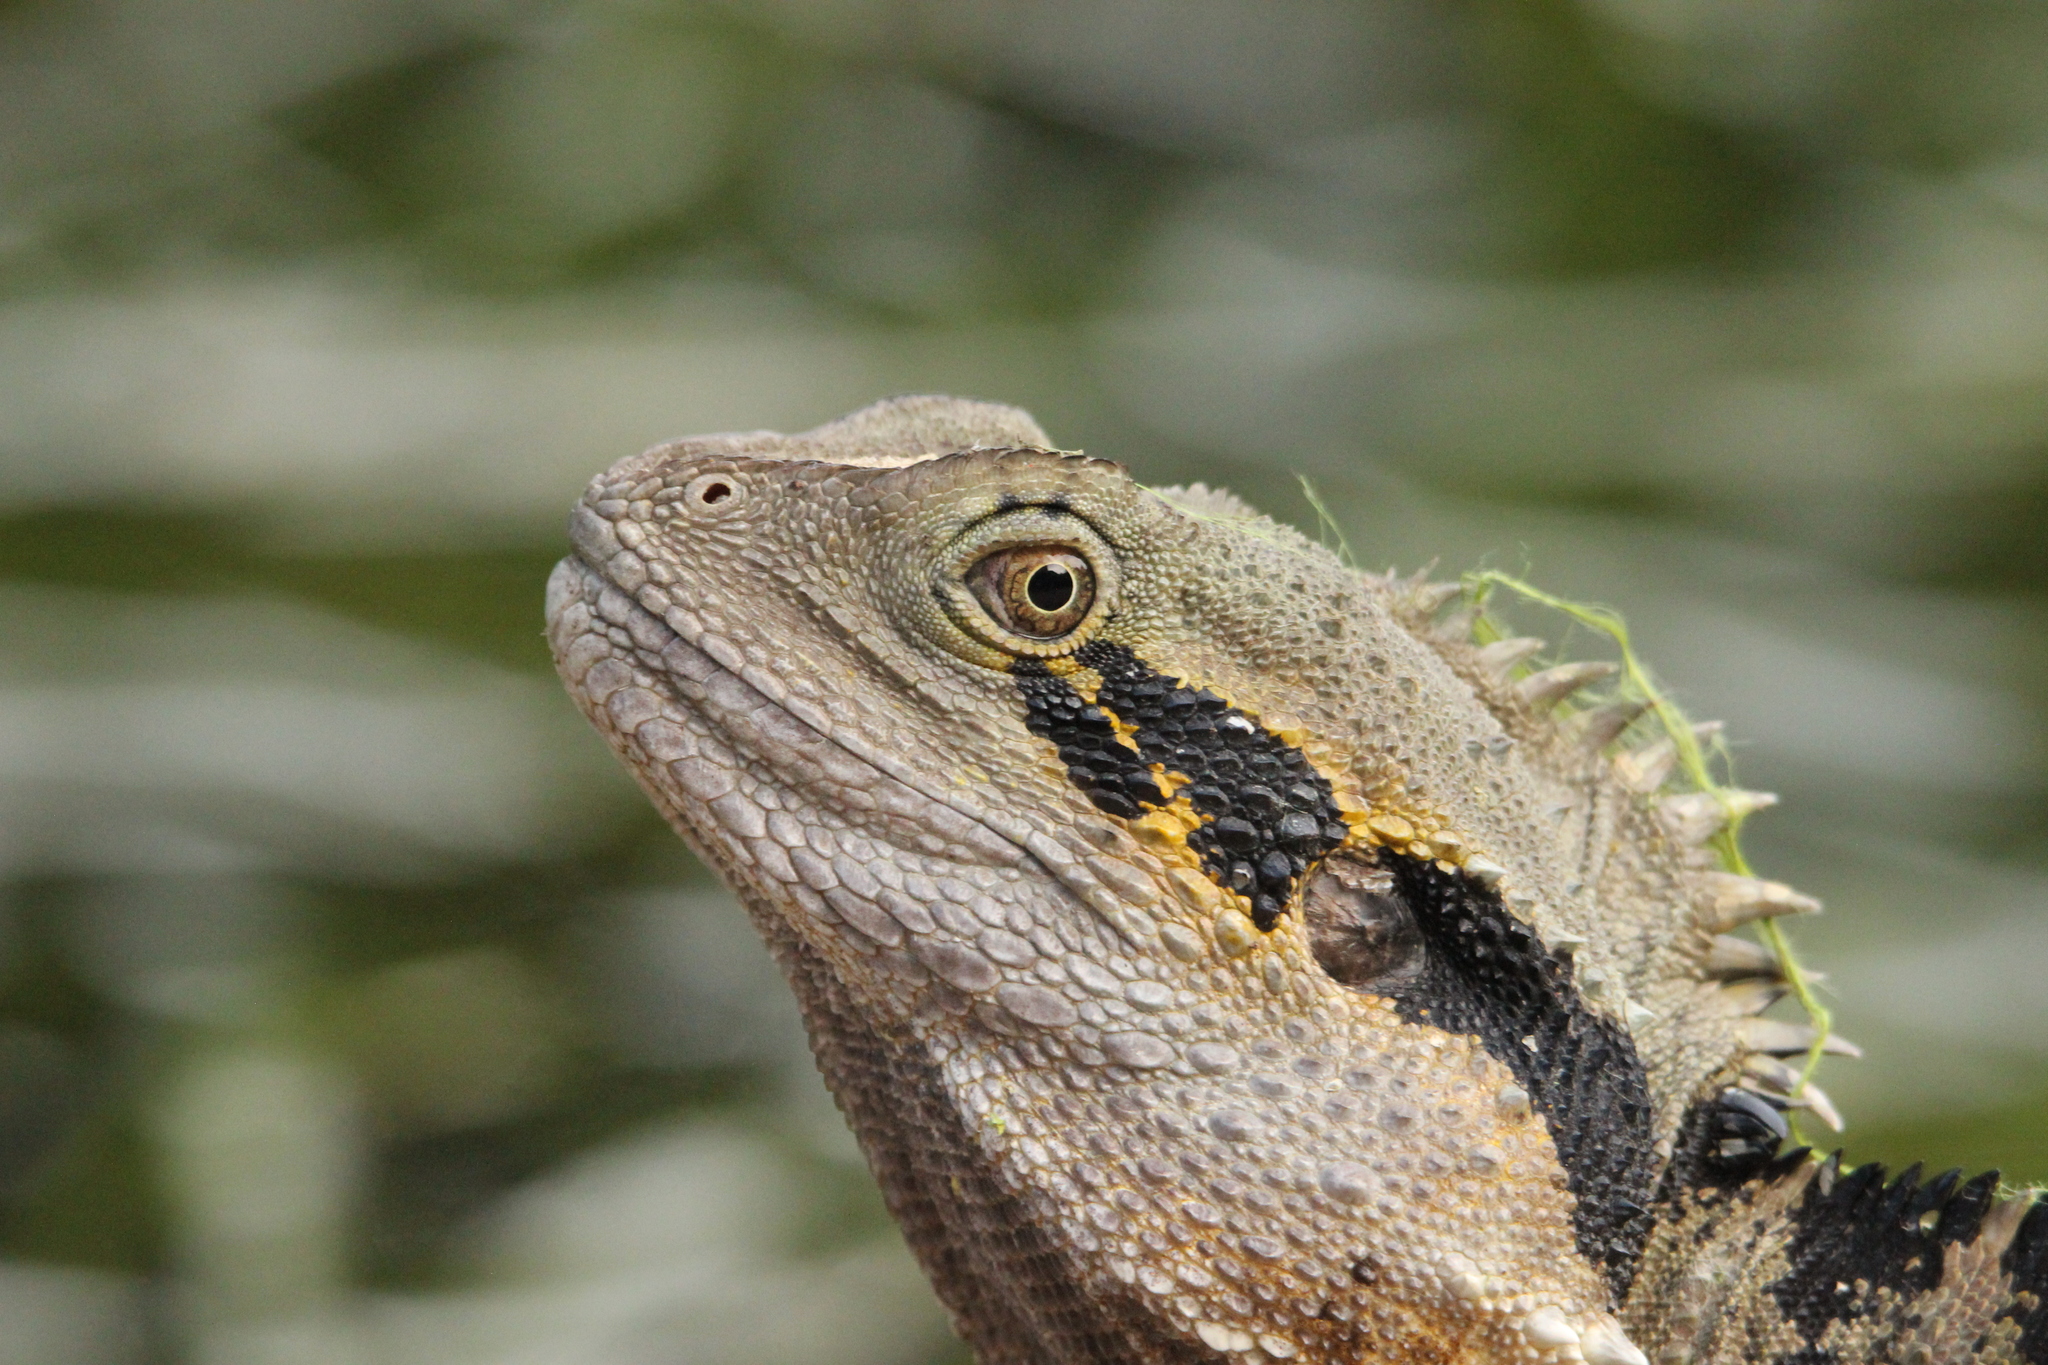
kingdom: Animalia
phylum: Chordata
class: Squamata
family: Agamidae
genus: Intellagama
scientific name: Intellagama lesueurii
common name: Eastern water dragon
